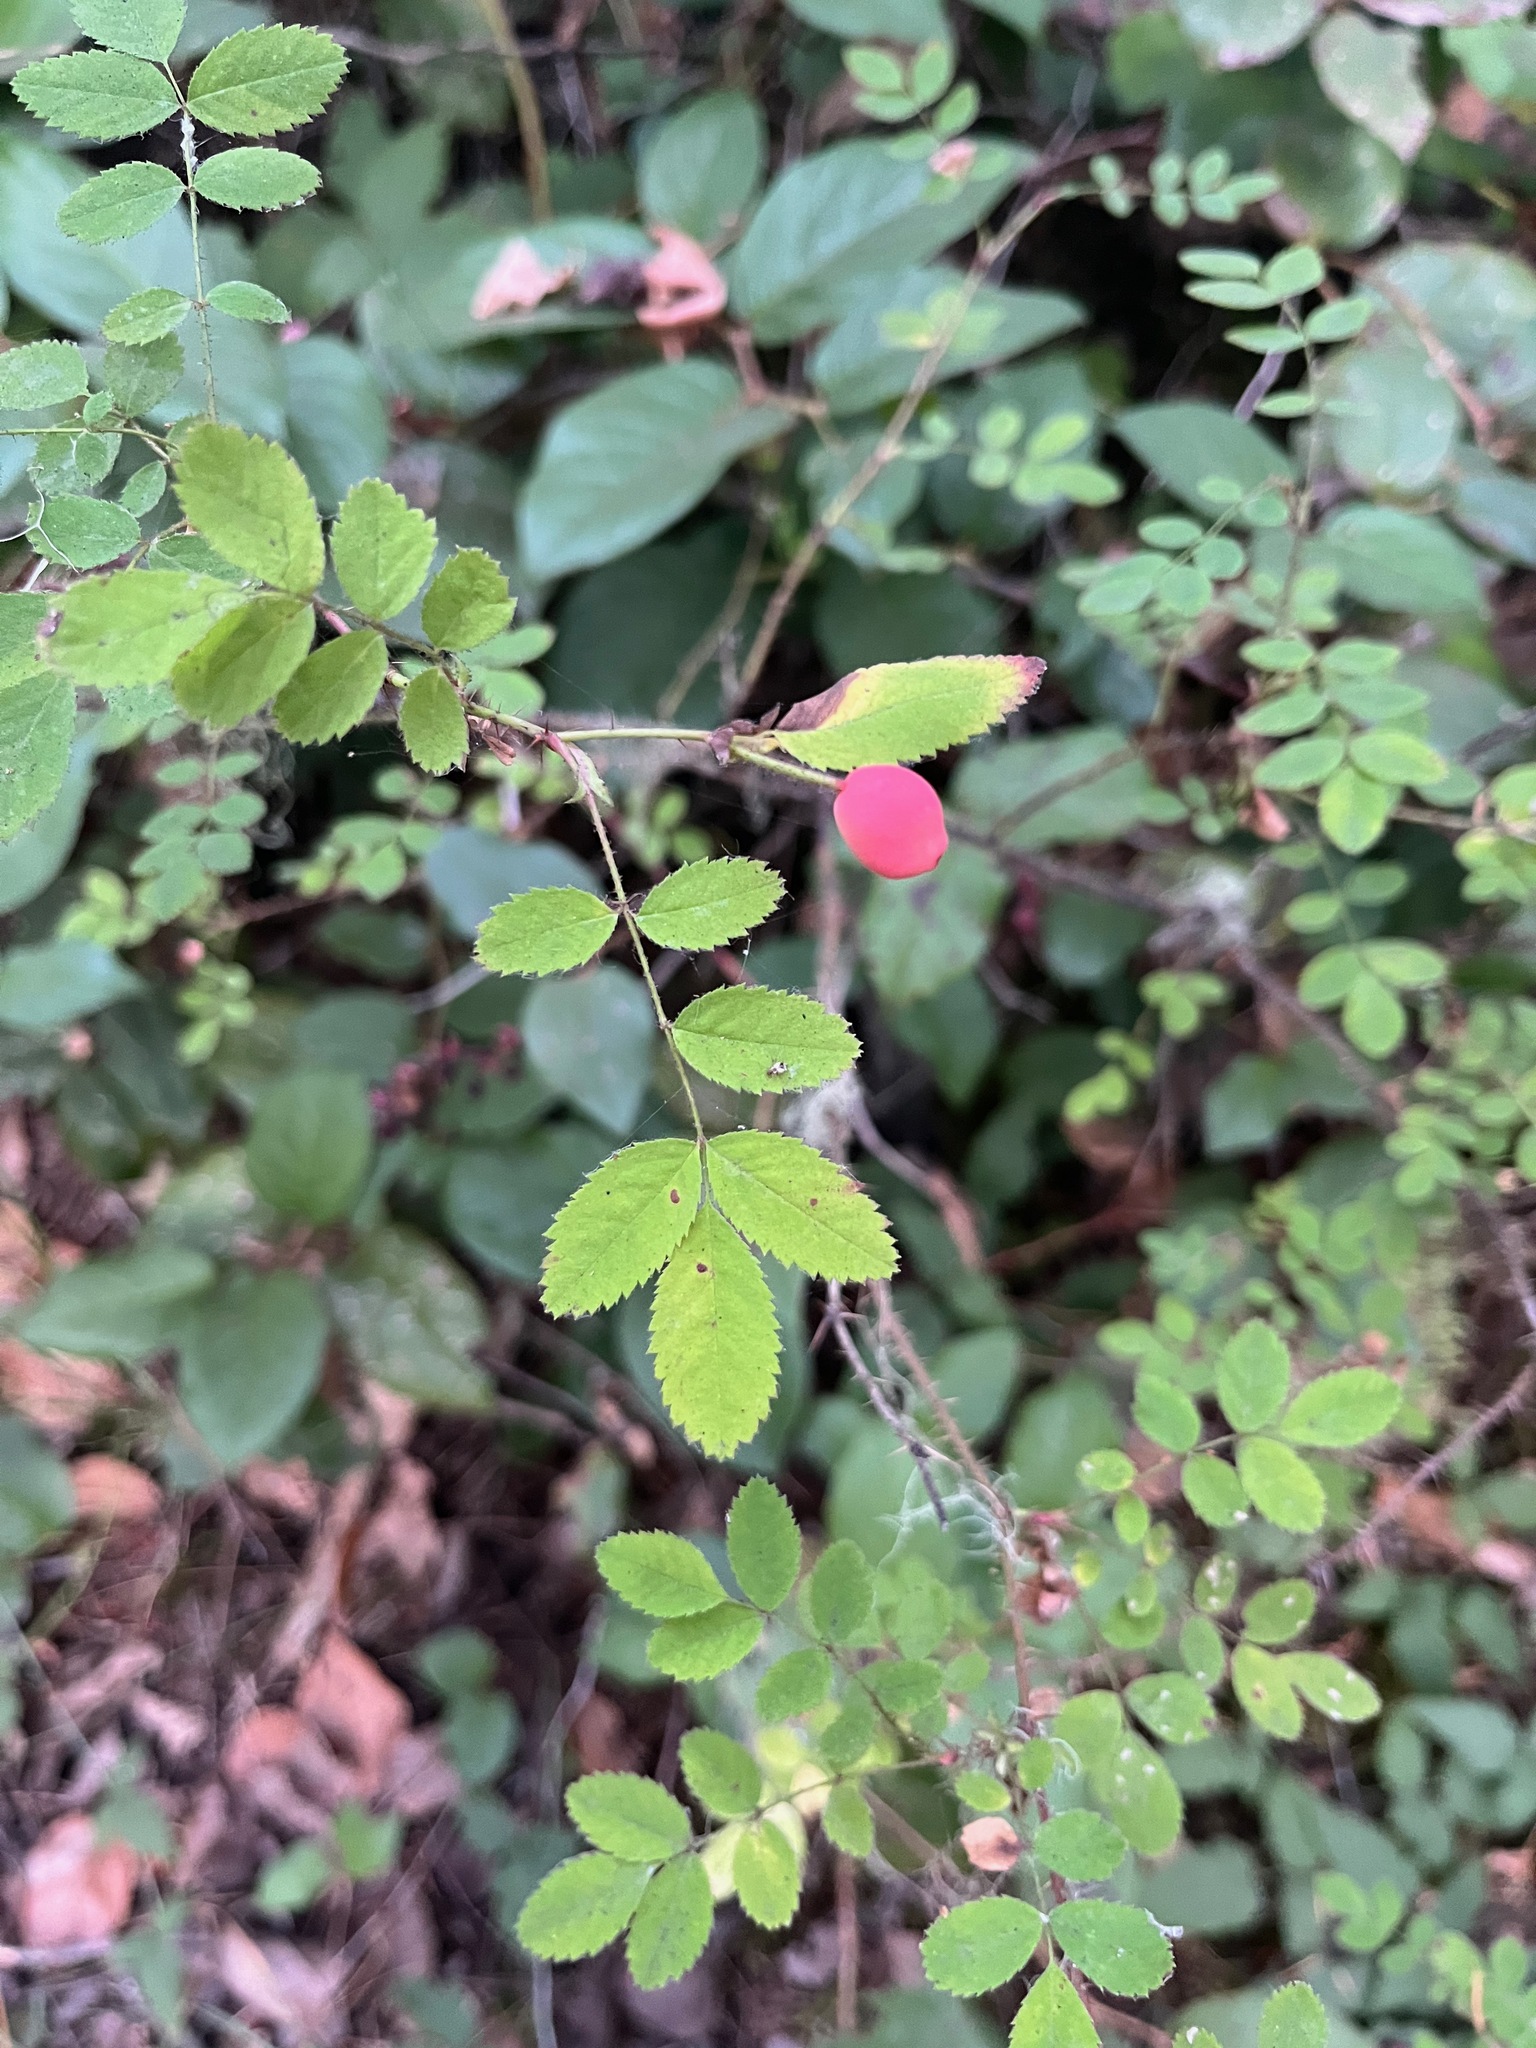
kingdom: Plantae
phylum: Tracheophyta
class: Magnoliopsida
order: Rosales
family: Rosaceae
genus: Rosa
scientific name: Rosa gymnocarpa
